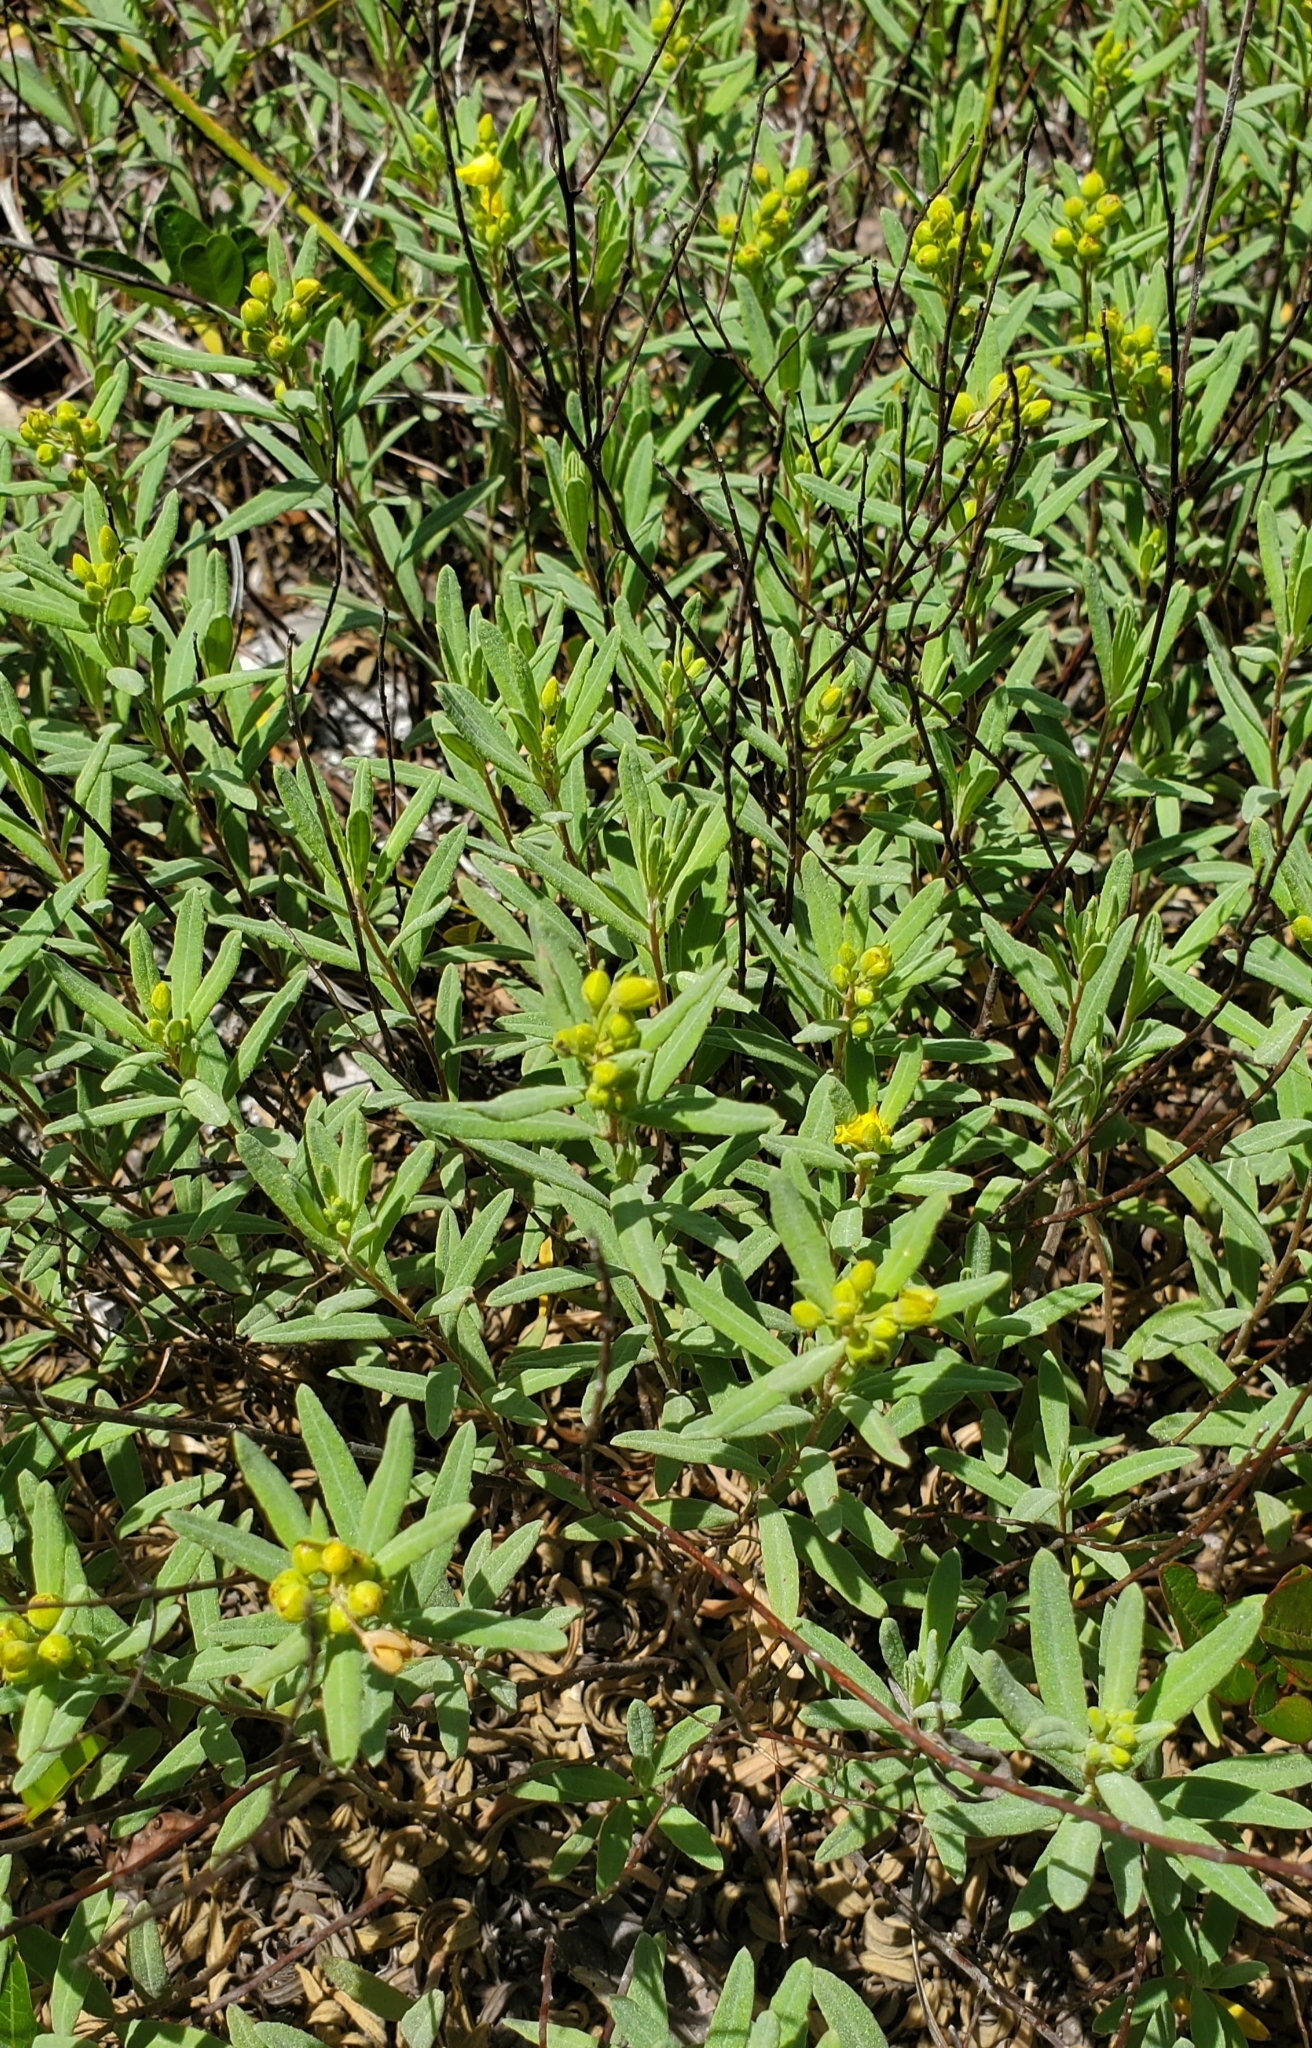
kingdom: Plantae
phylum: Tracheophyta
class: Magnoliopsida
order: Malvales
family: Cistaceae
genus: Crocanthemum
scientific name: Crocanthemum nashii
